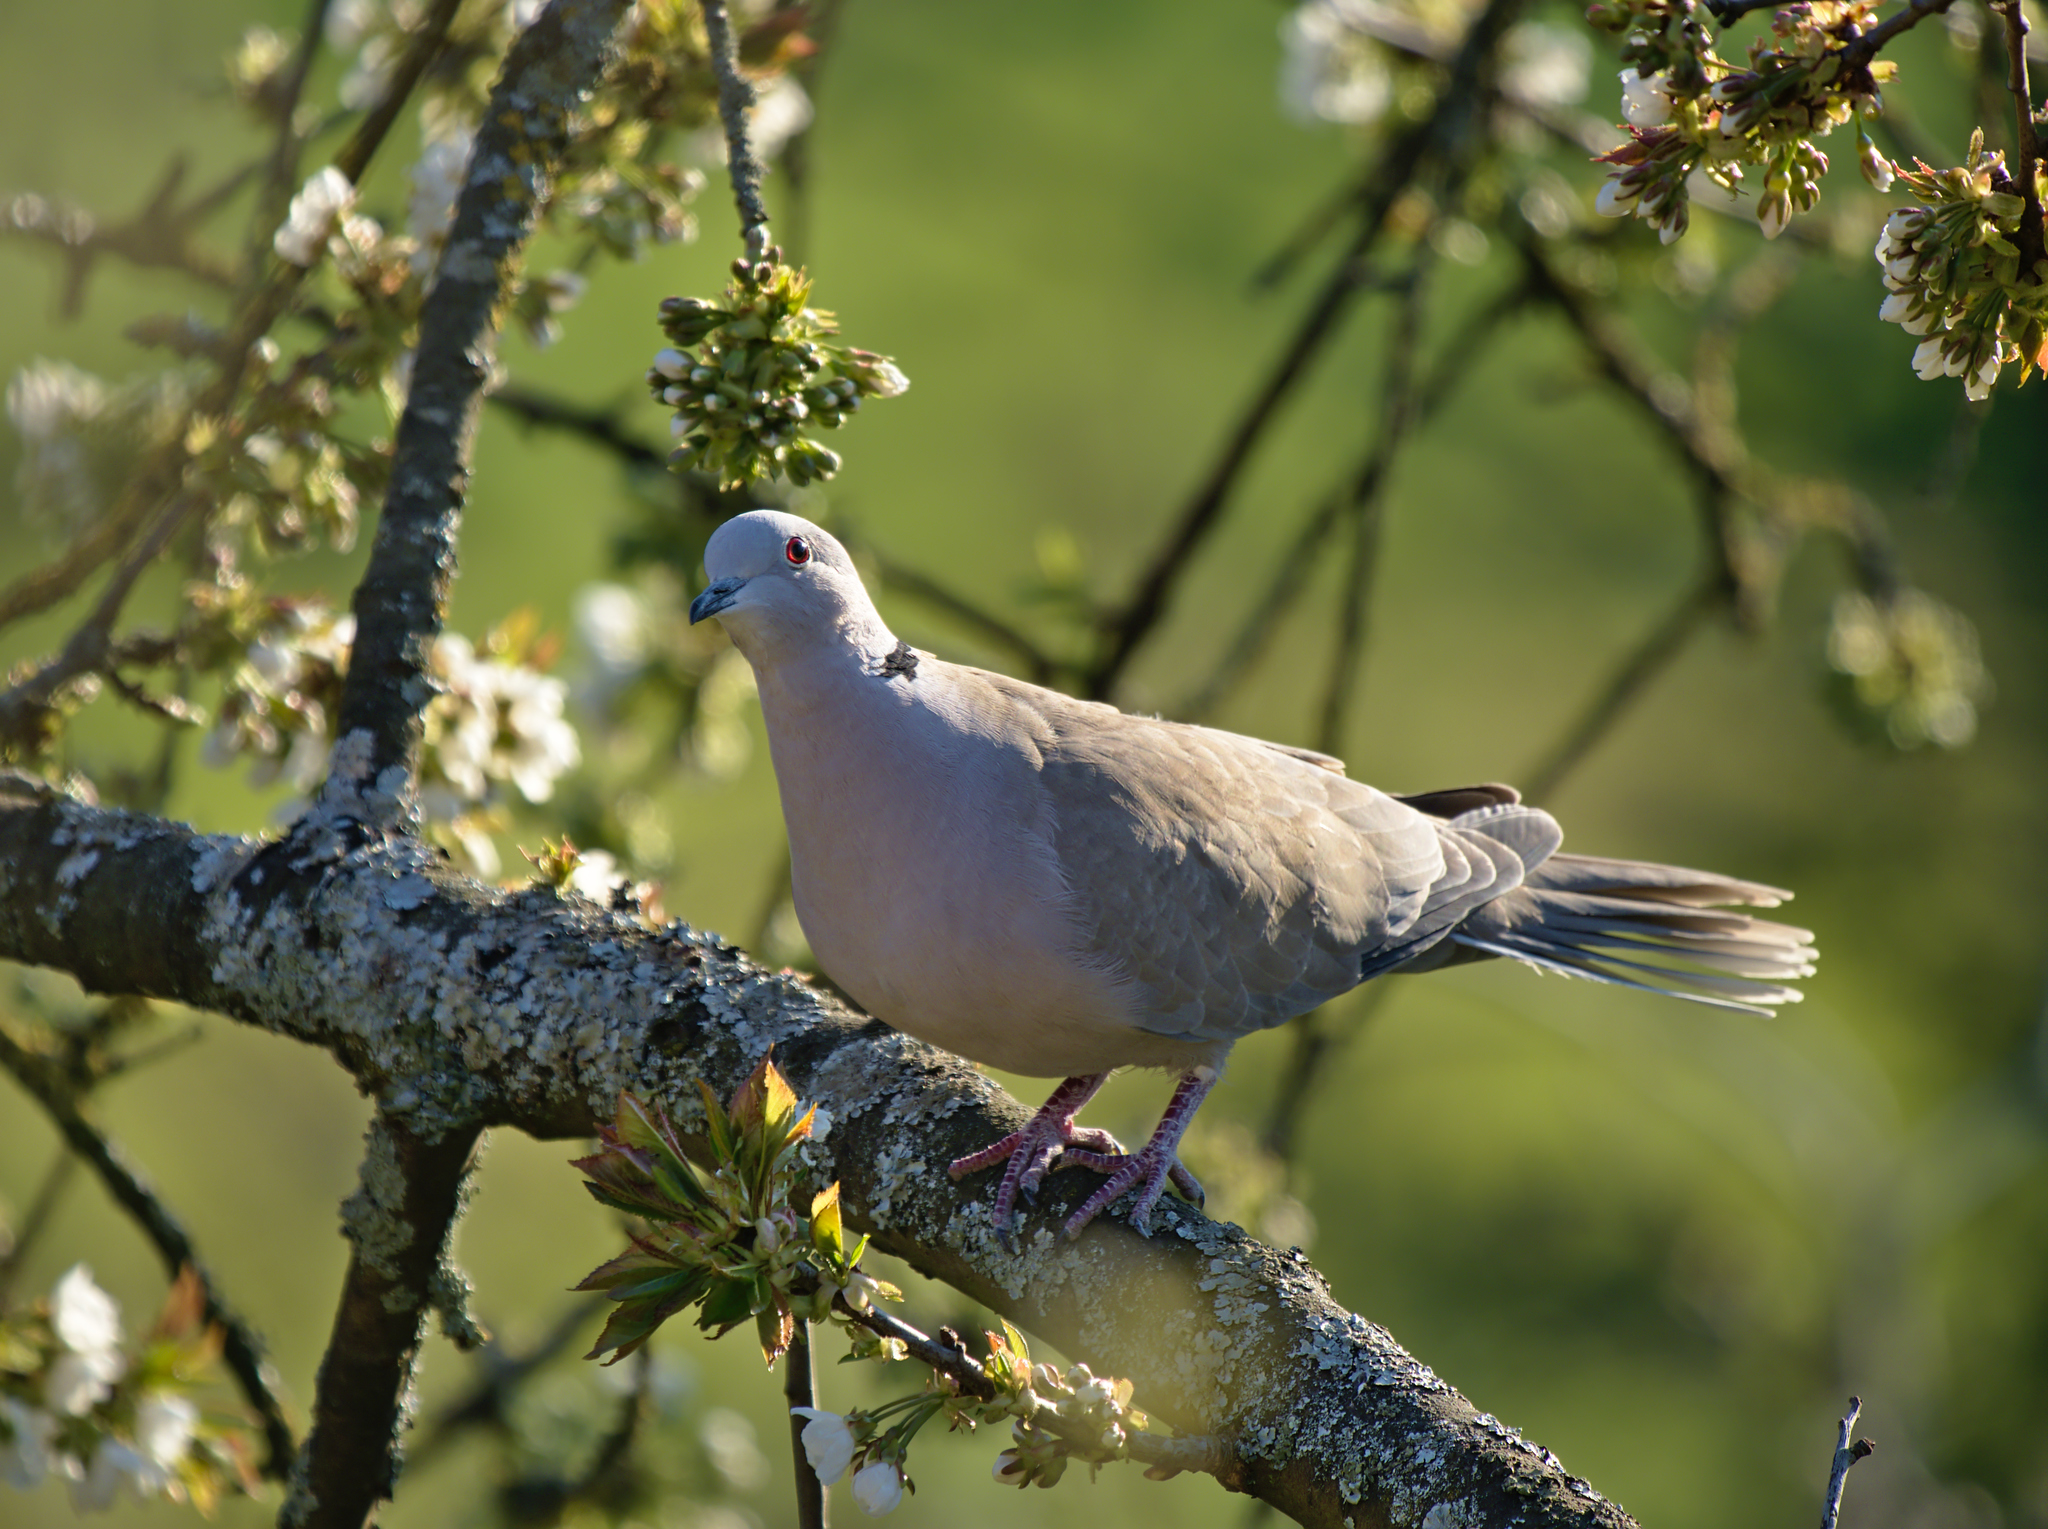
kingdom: Animalia
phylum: Chordata
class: Aves
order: Columbiformes
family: Columbidae
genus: Streptopelia
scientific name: Streptopelia decaocto
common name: Eurasian collared dove
